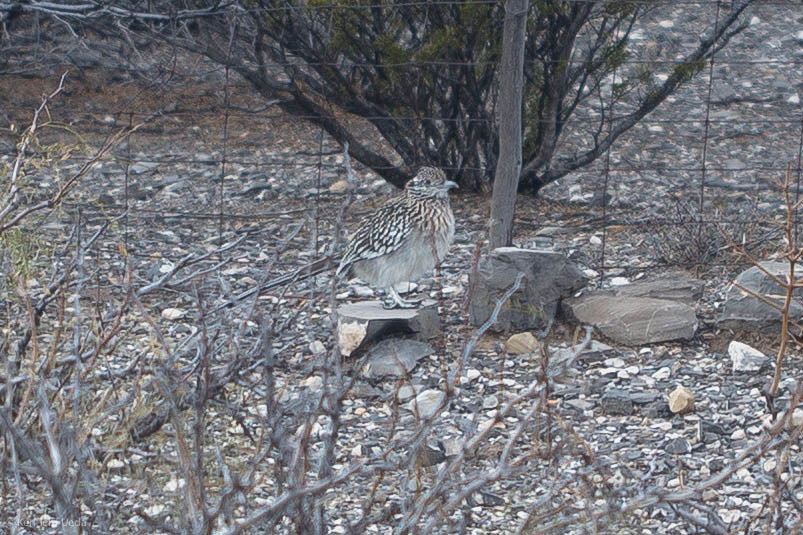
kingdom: Animalia
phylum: Chordata
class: Aves
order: Cuculiformes
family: Cuculidae
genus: Geococcyx
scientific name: Geococcyx californianus
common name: Greater roadrunner
